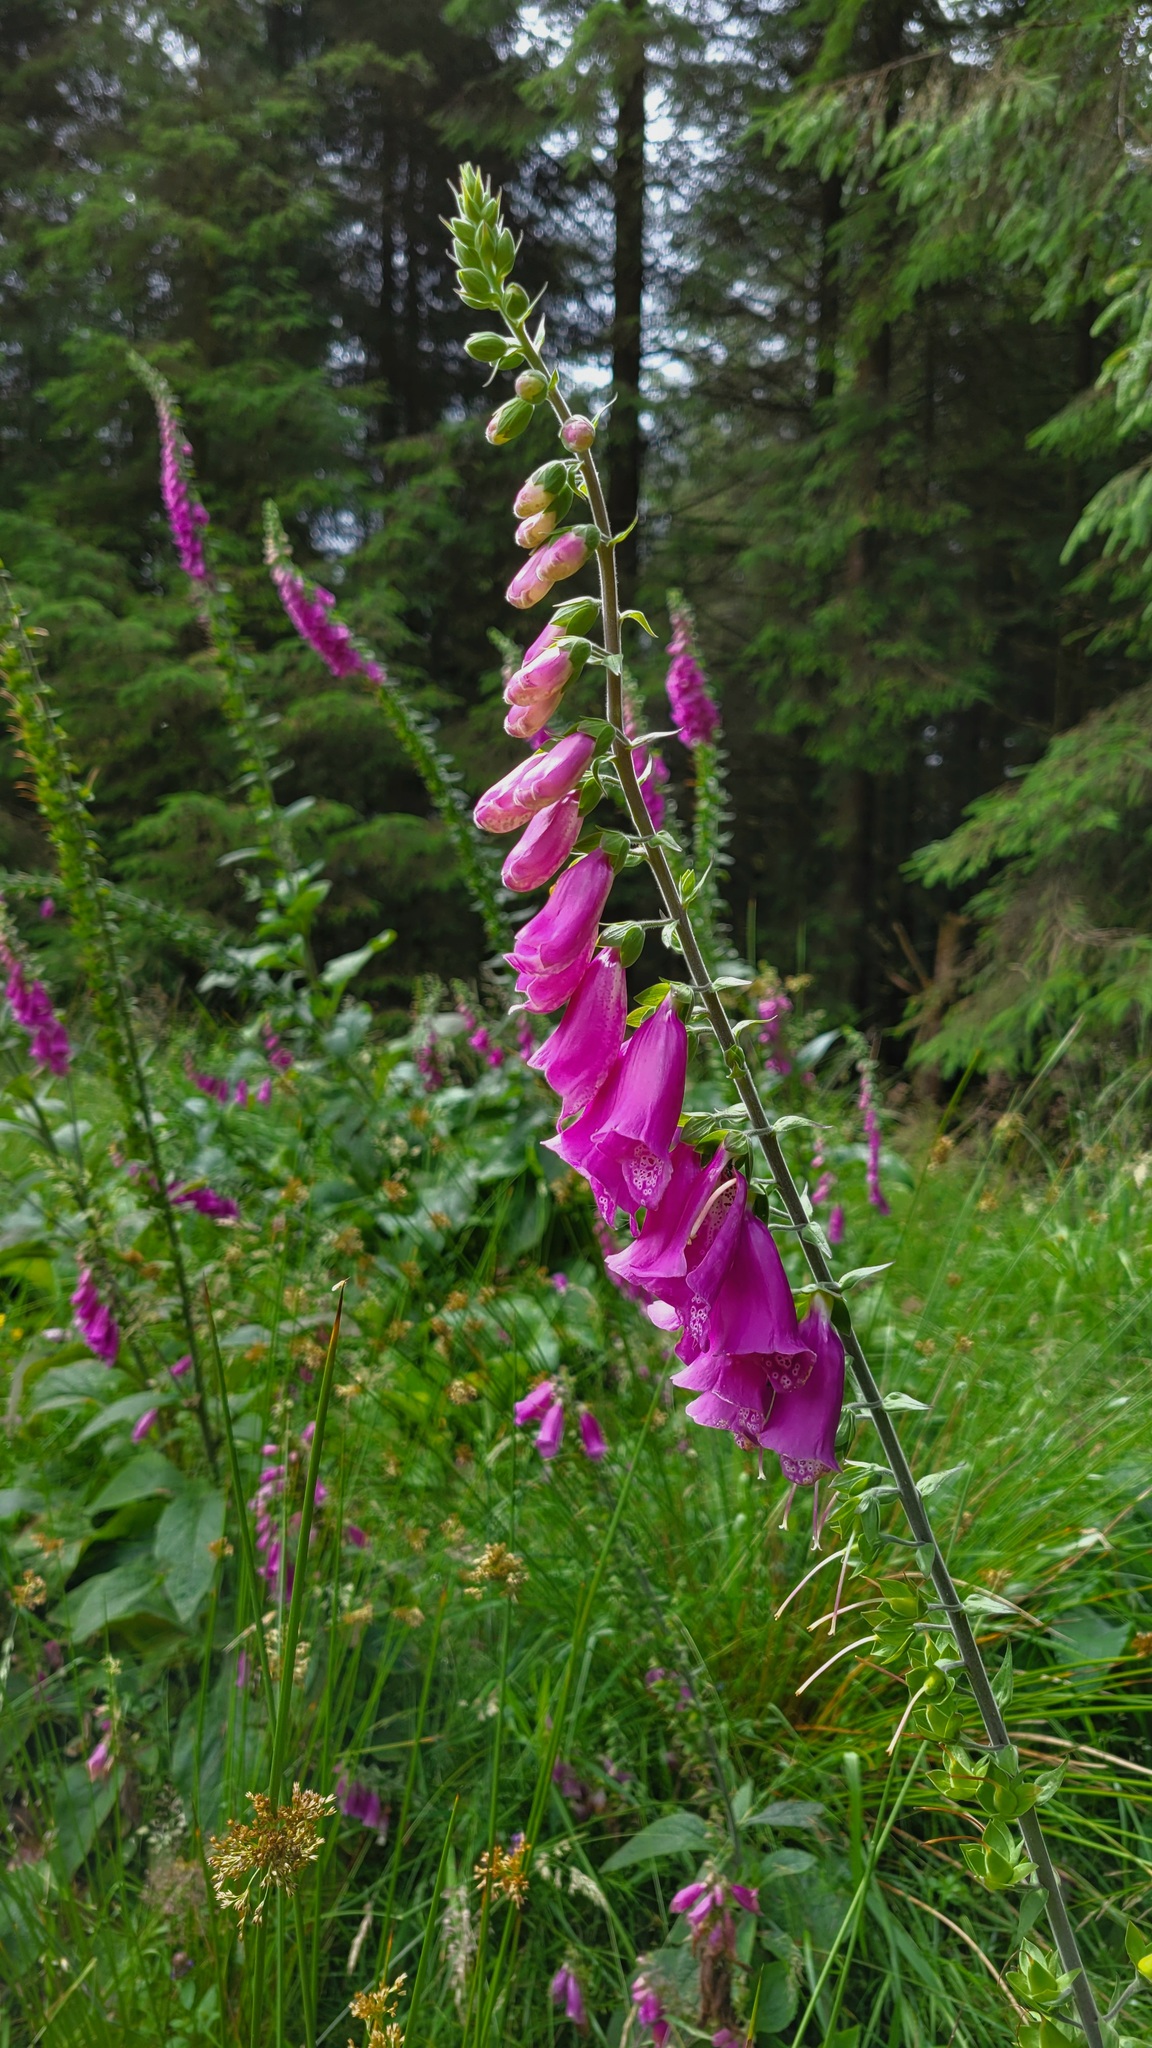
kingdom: Plantae
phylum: Tracheophyta
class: Magnoliopsida
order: Lamiales
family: Plantaginaceae
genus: Digitalis
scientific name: Digitalis purpurea
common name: Foxglove
